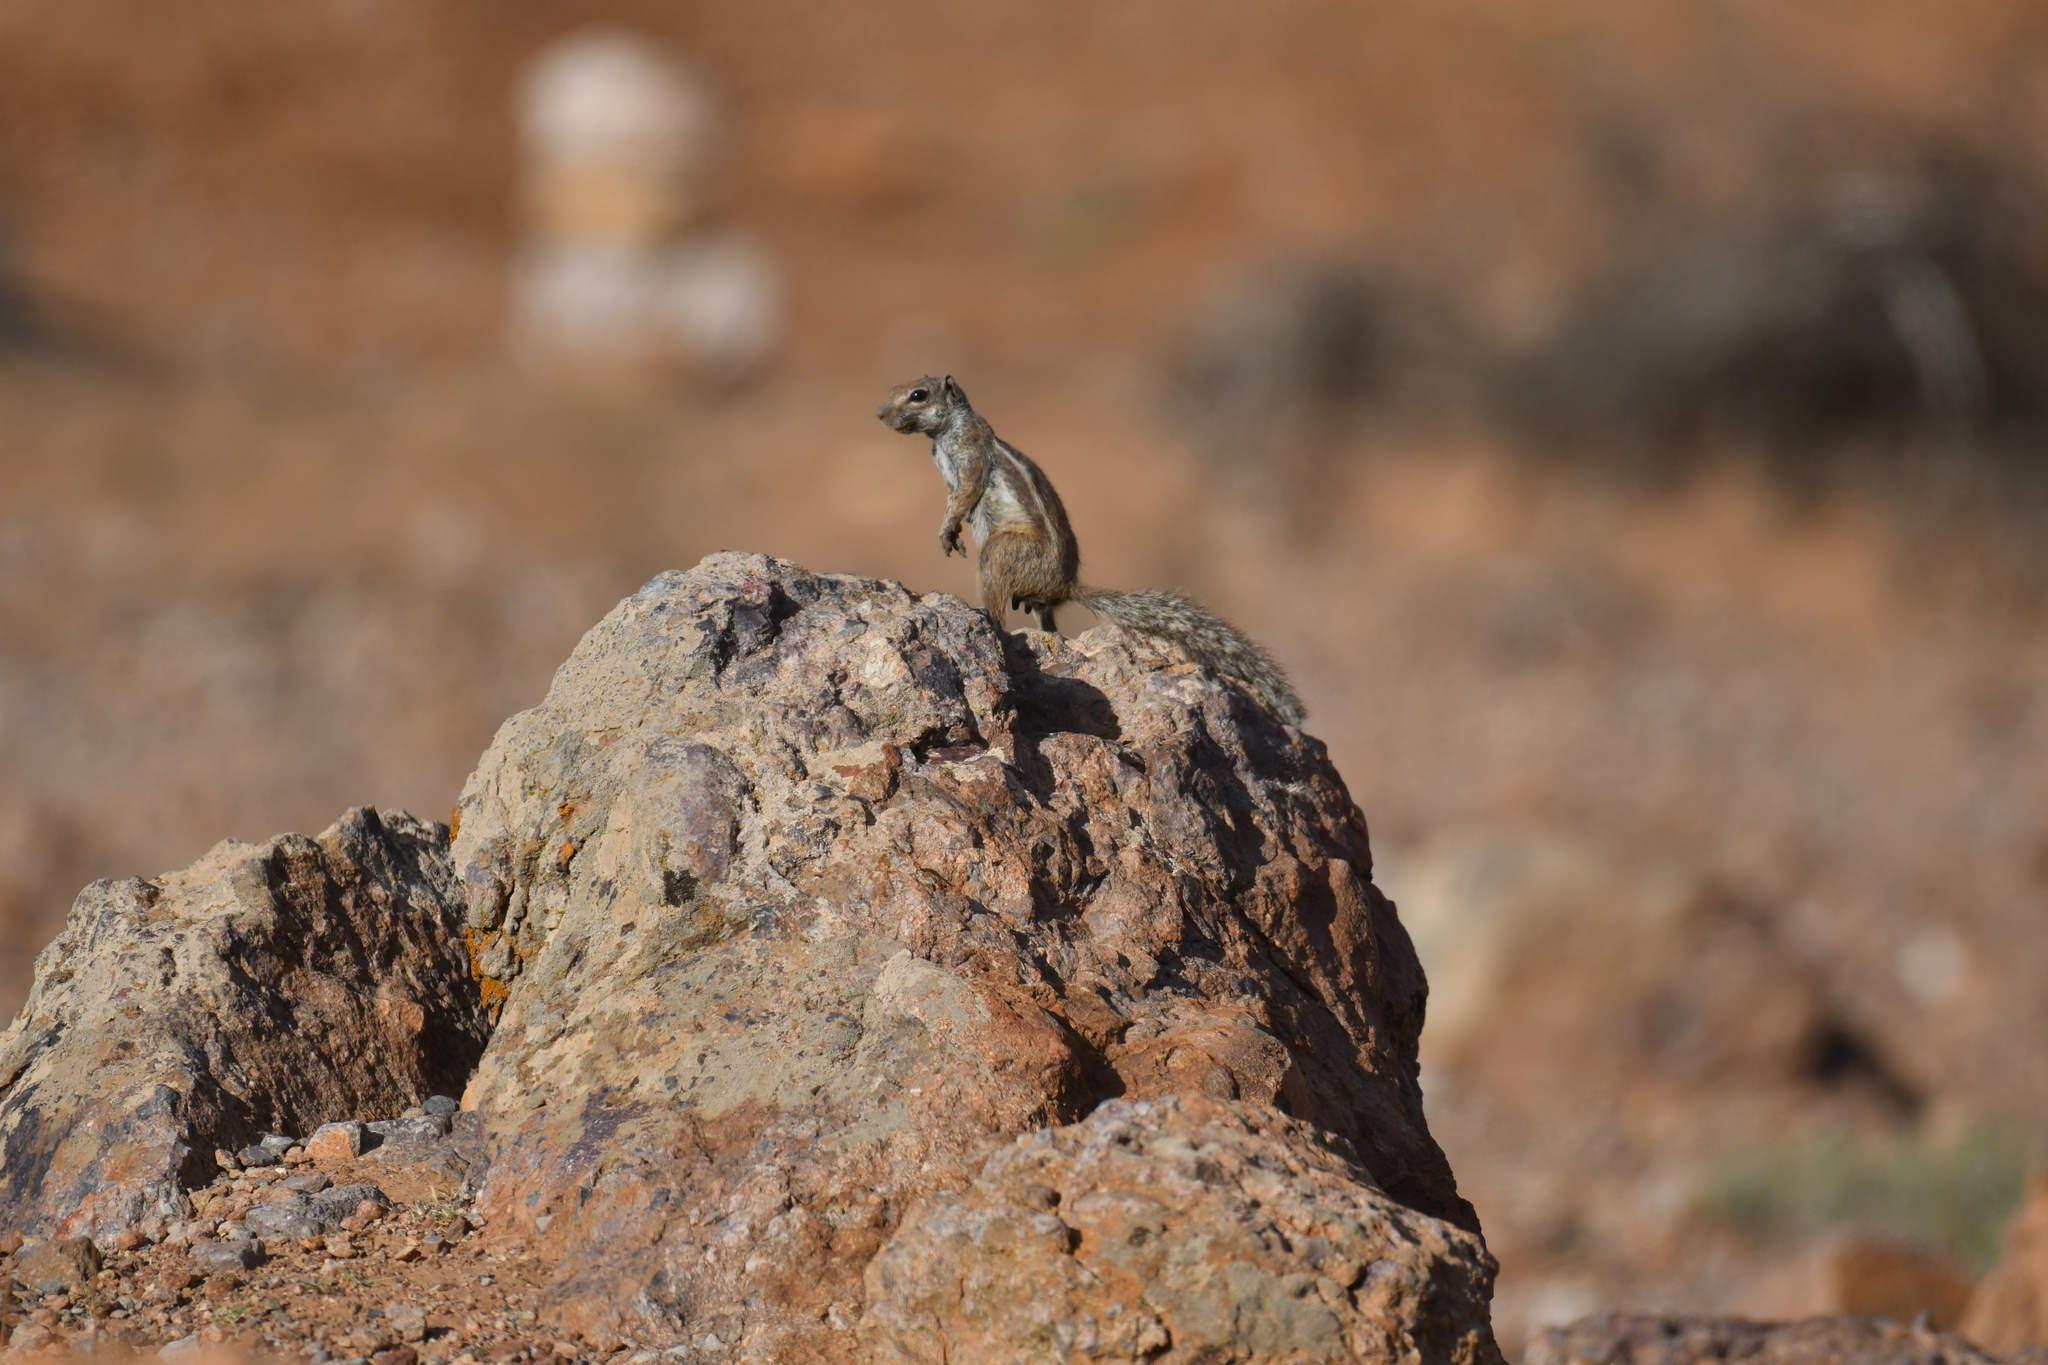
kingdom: Animalia
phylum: Chordata
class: Mammalia
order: Rodentia
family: Sciuridae
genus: Atlantoxerus
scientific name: Atlantoxerus getulus
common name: Barbary ground squirrel
